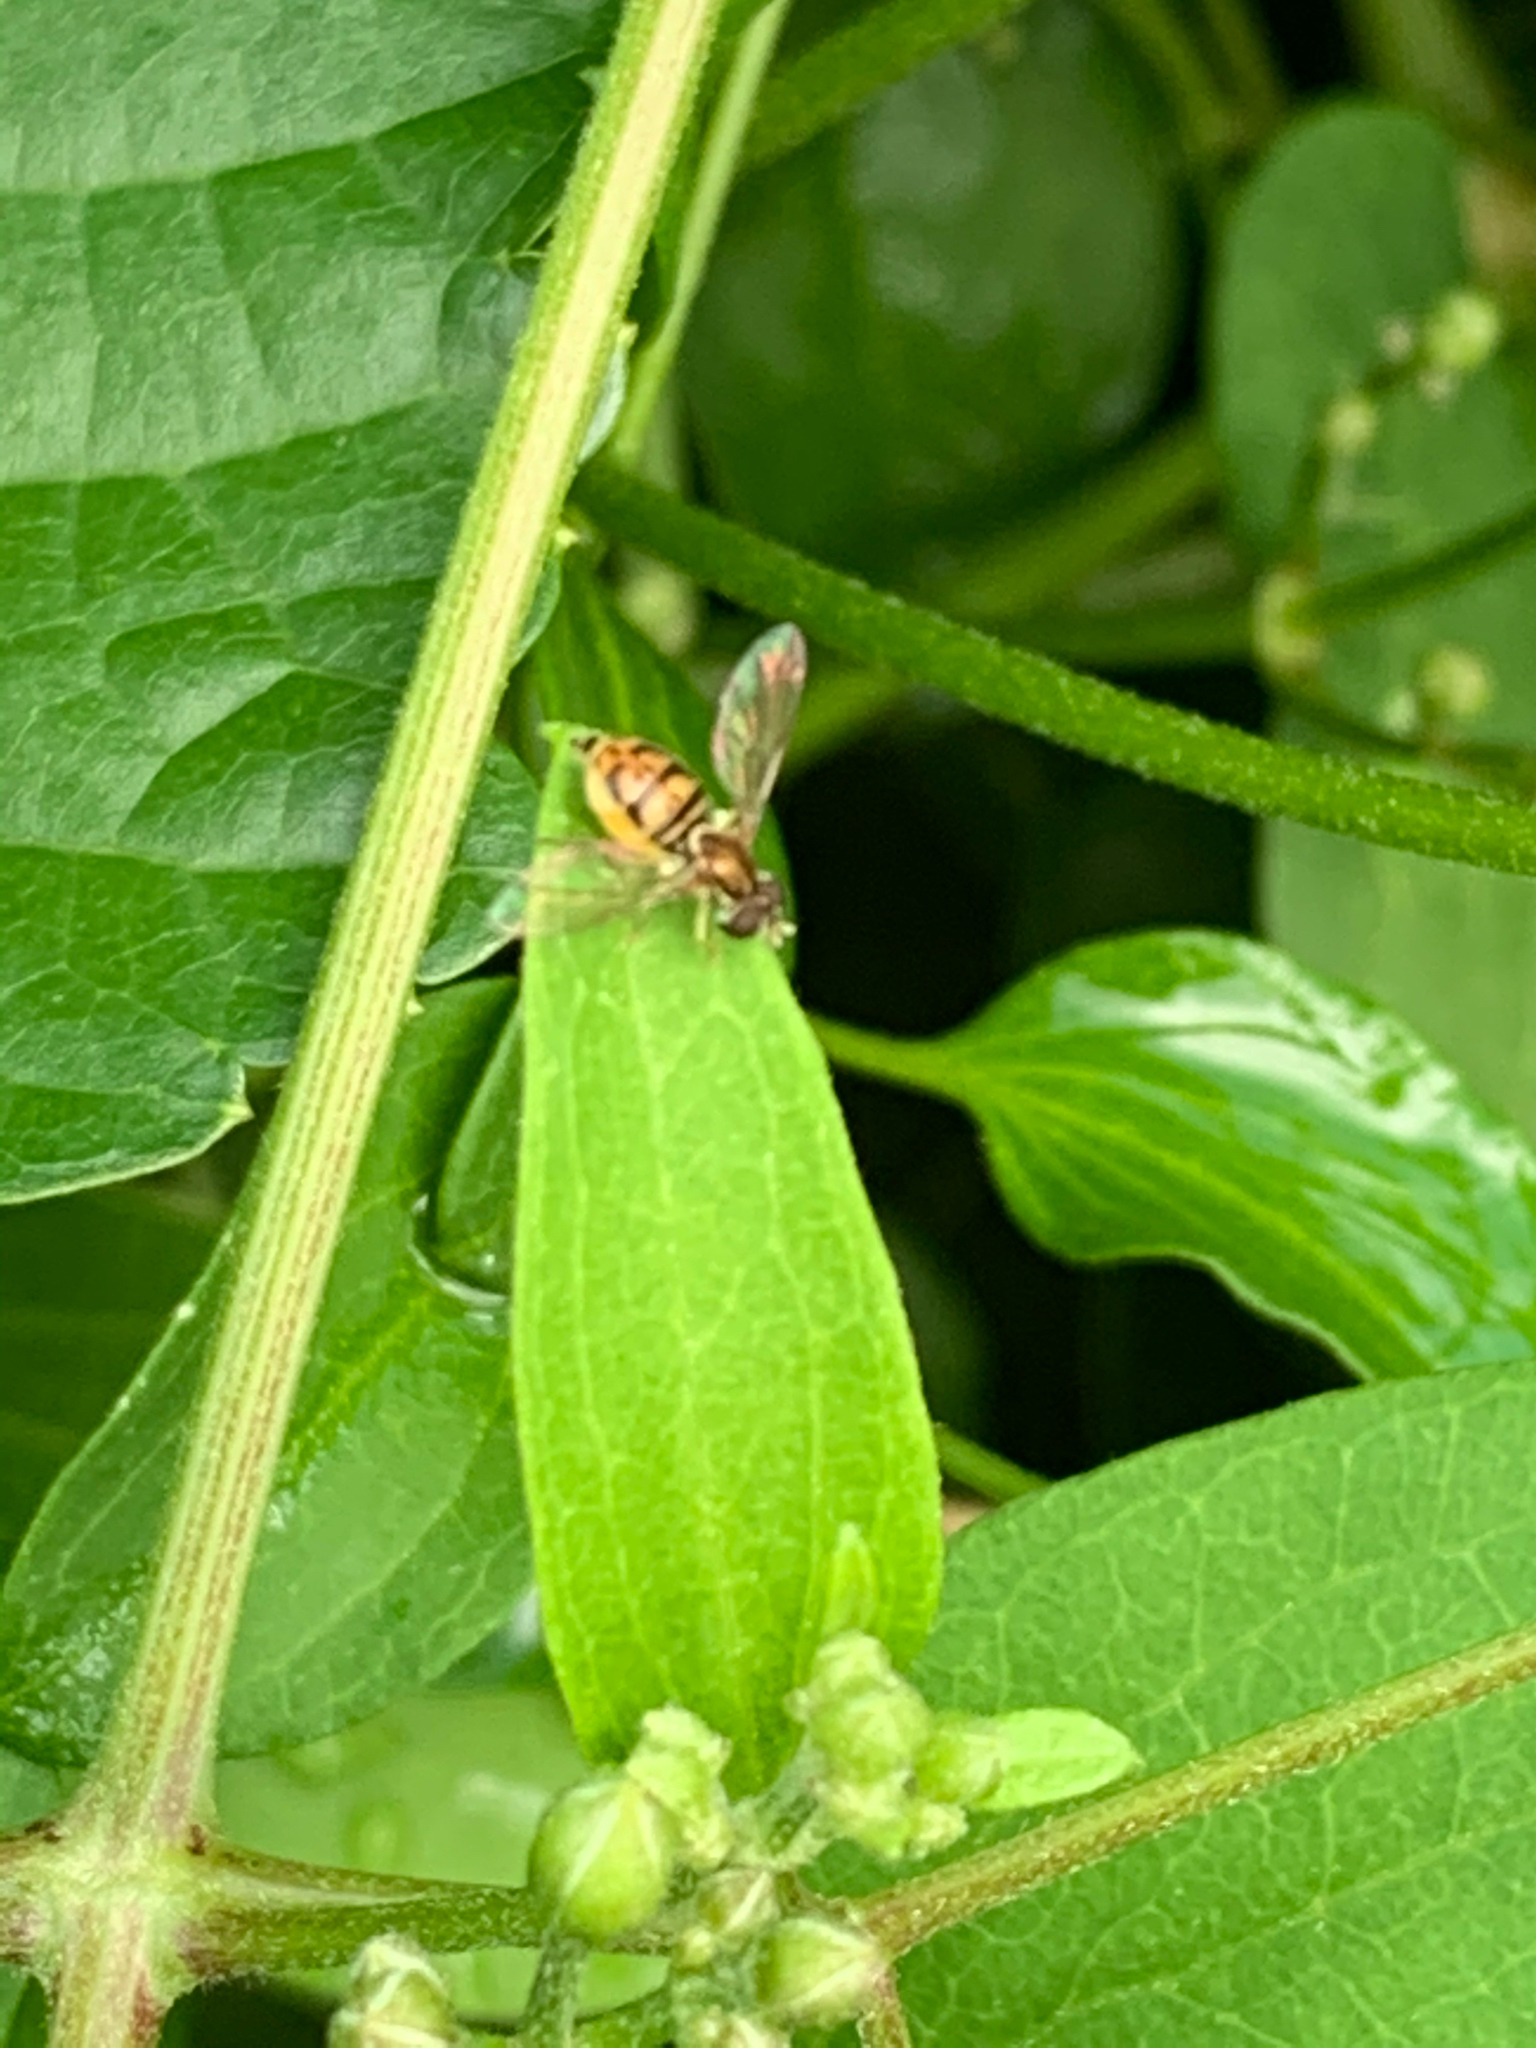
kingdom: Animalia
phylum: Arthropoda
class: Insecta
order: Diptera
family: Syrphidae
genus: Toxomerus
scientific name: Toxomerus marginatus
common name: Syrphid fly
